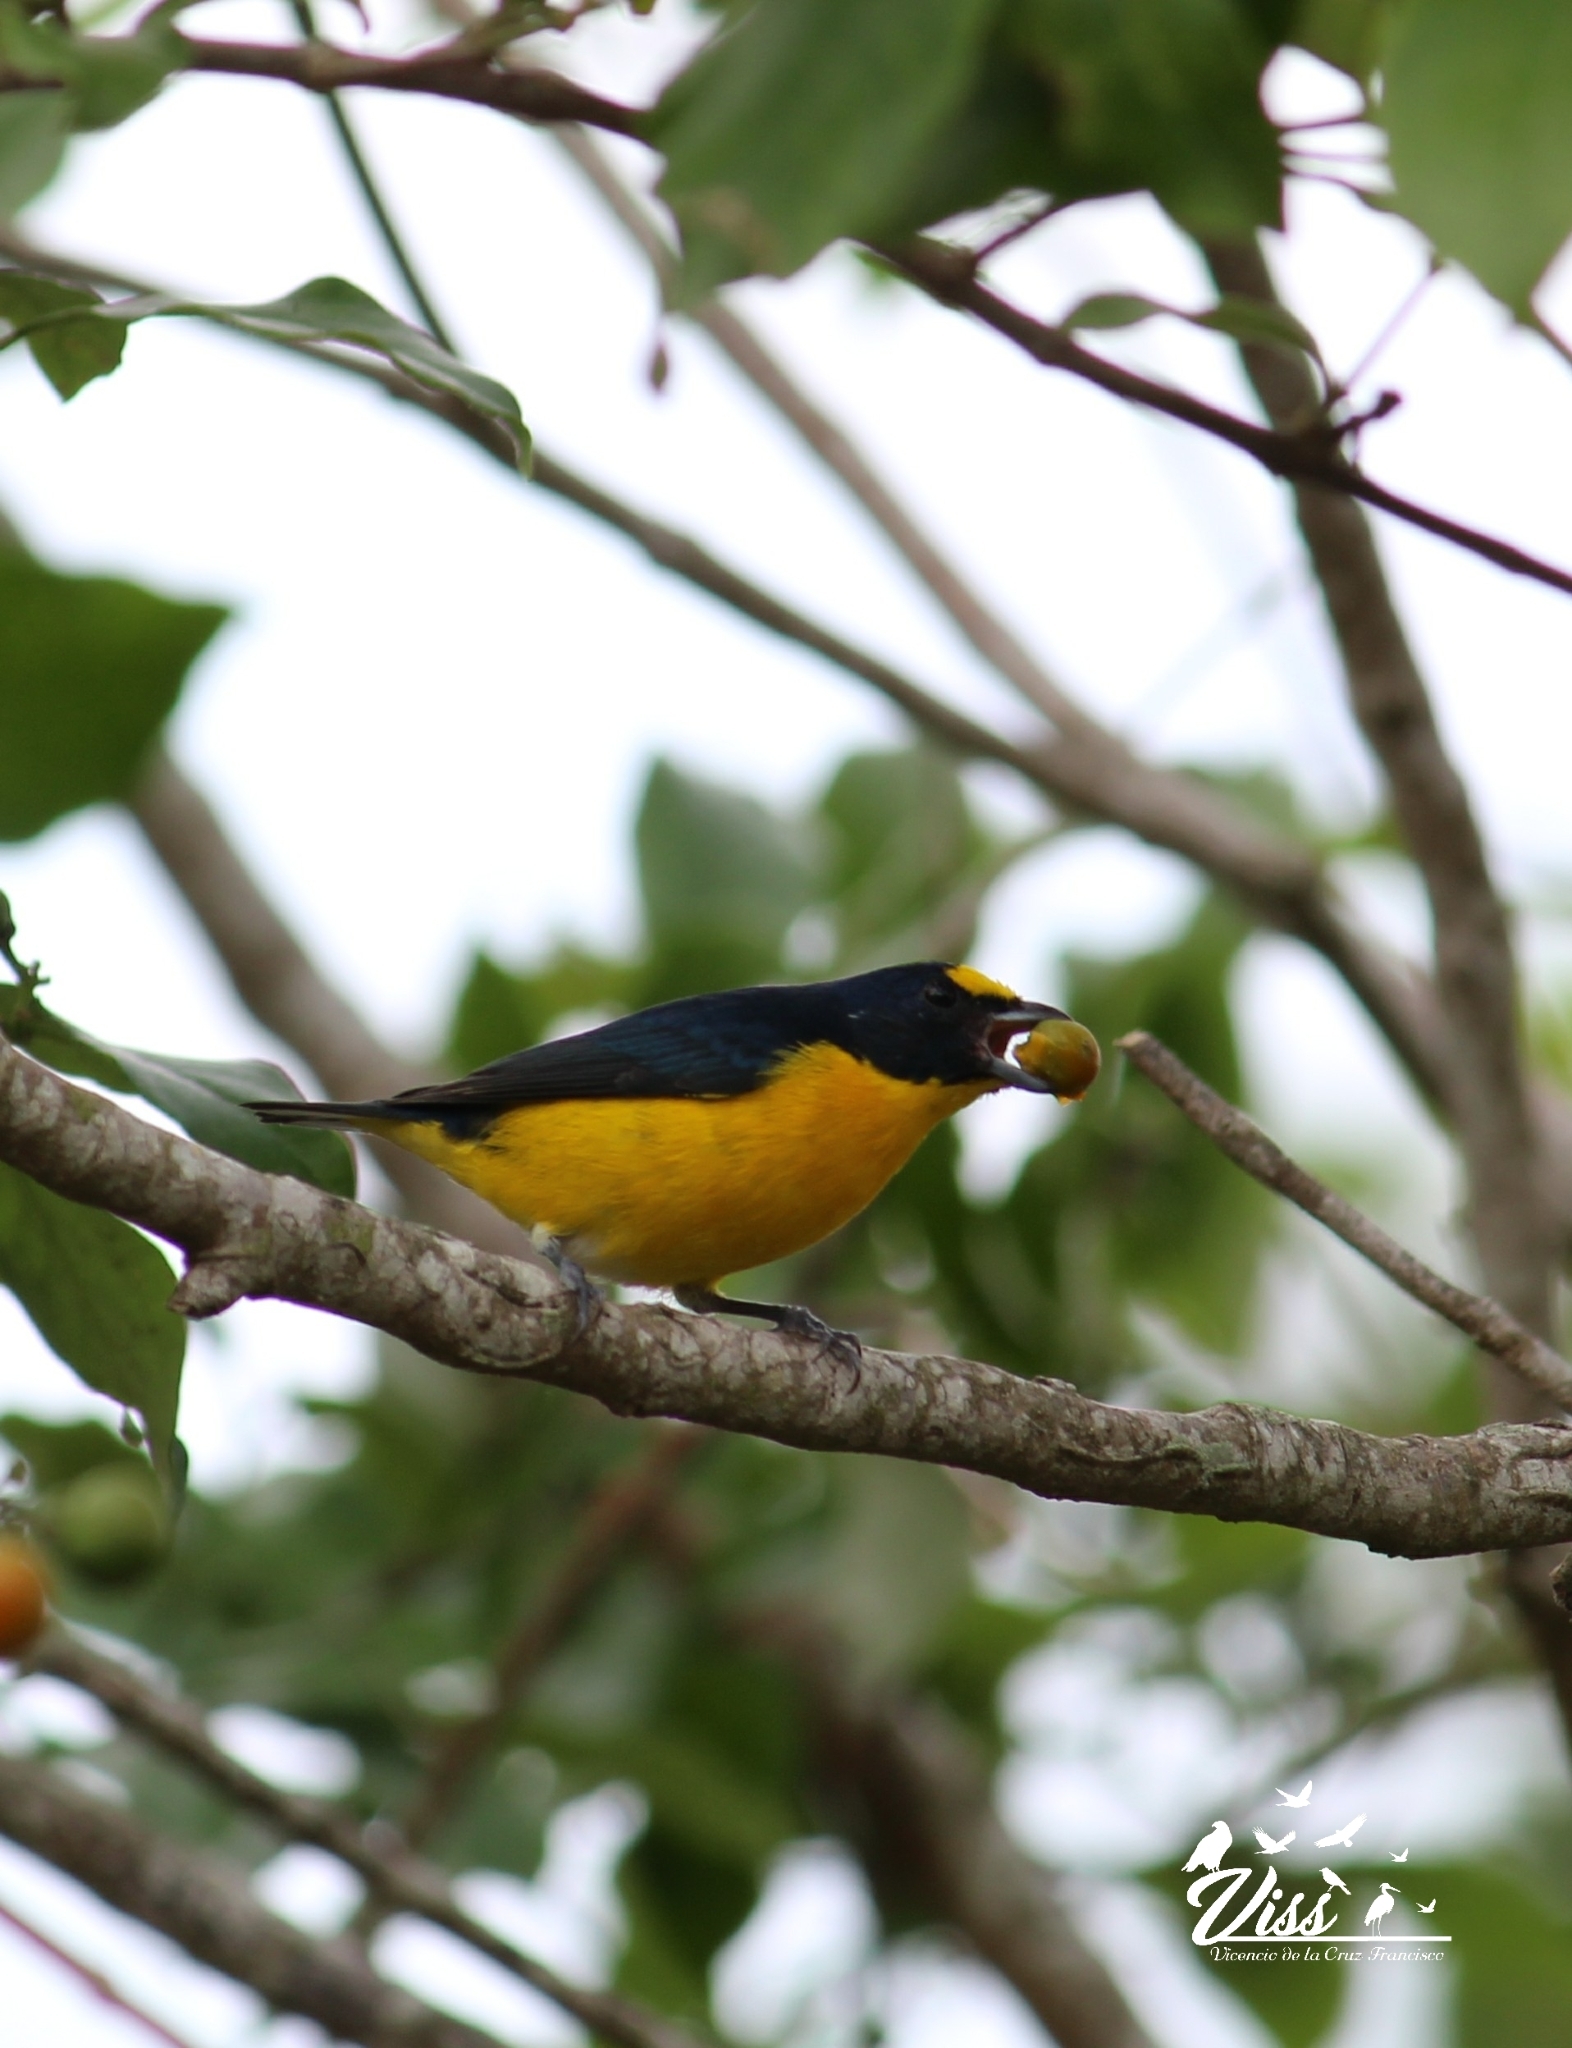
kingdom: Animalia
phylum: Chordata
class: Aves
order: Passeriformes
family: Fringillidae
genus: Euphonia
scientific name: Euphonia hirundinacea
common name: Yellow-throated euphonia
